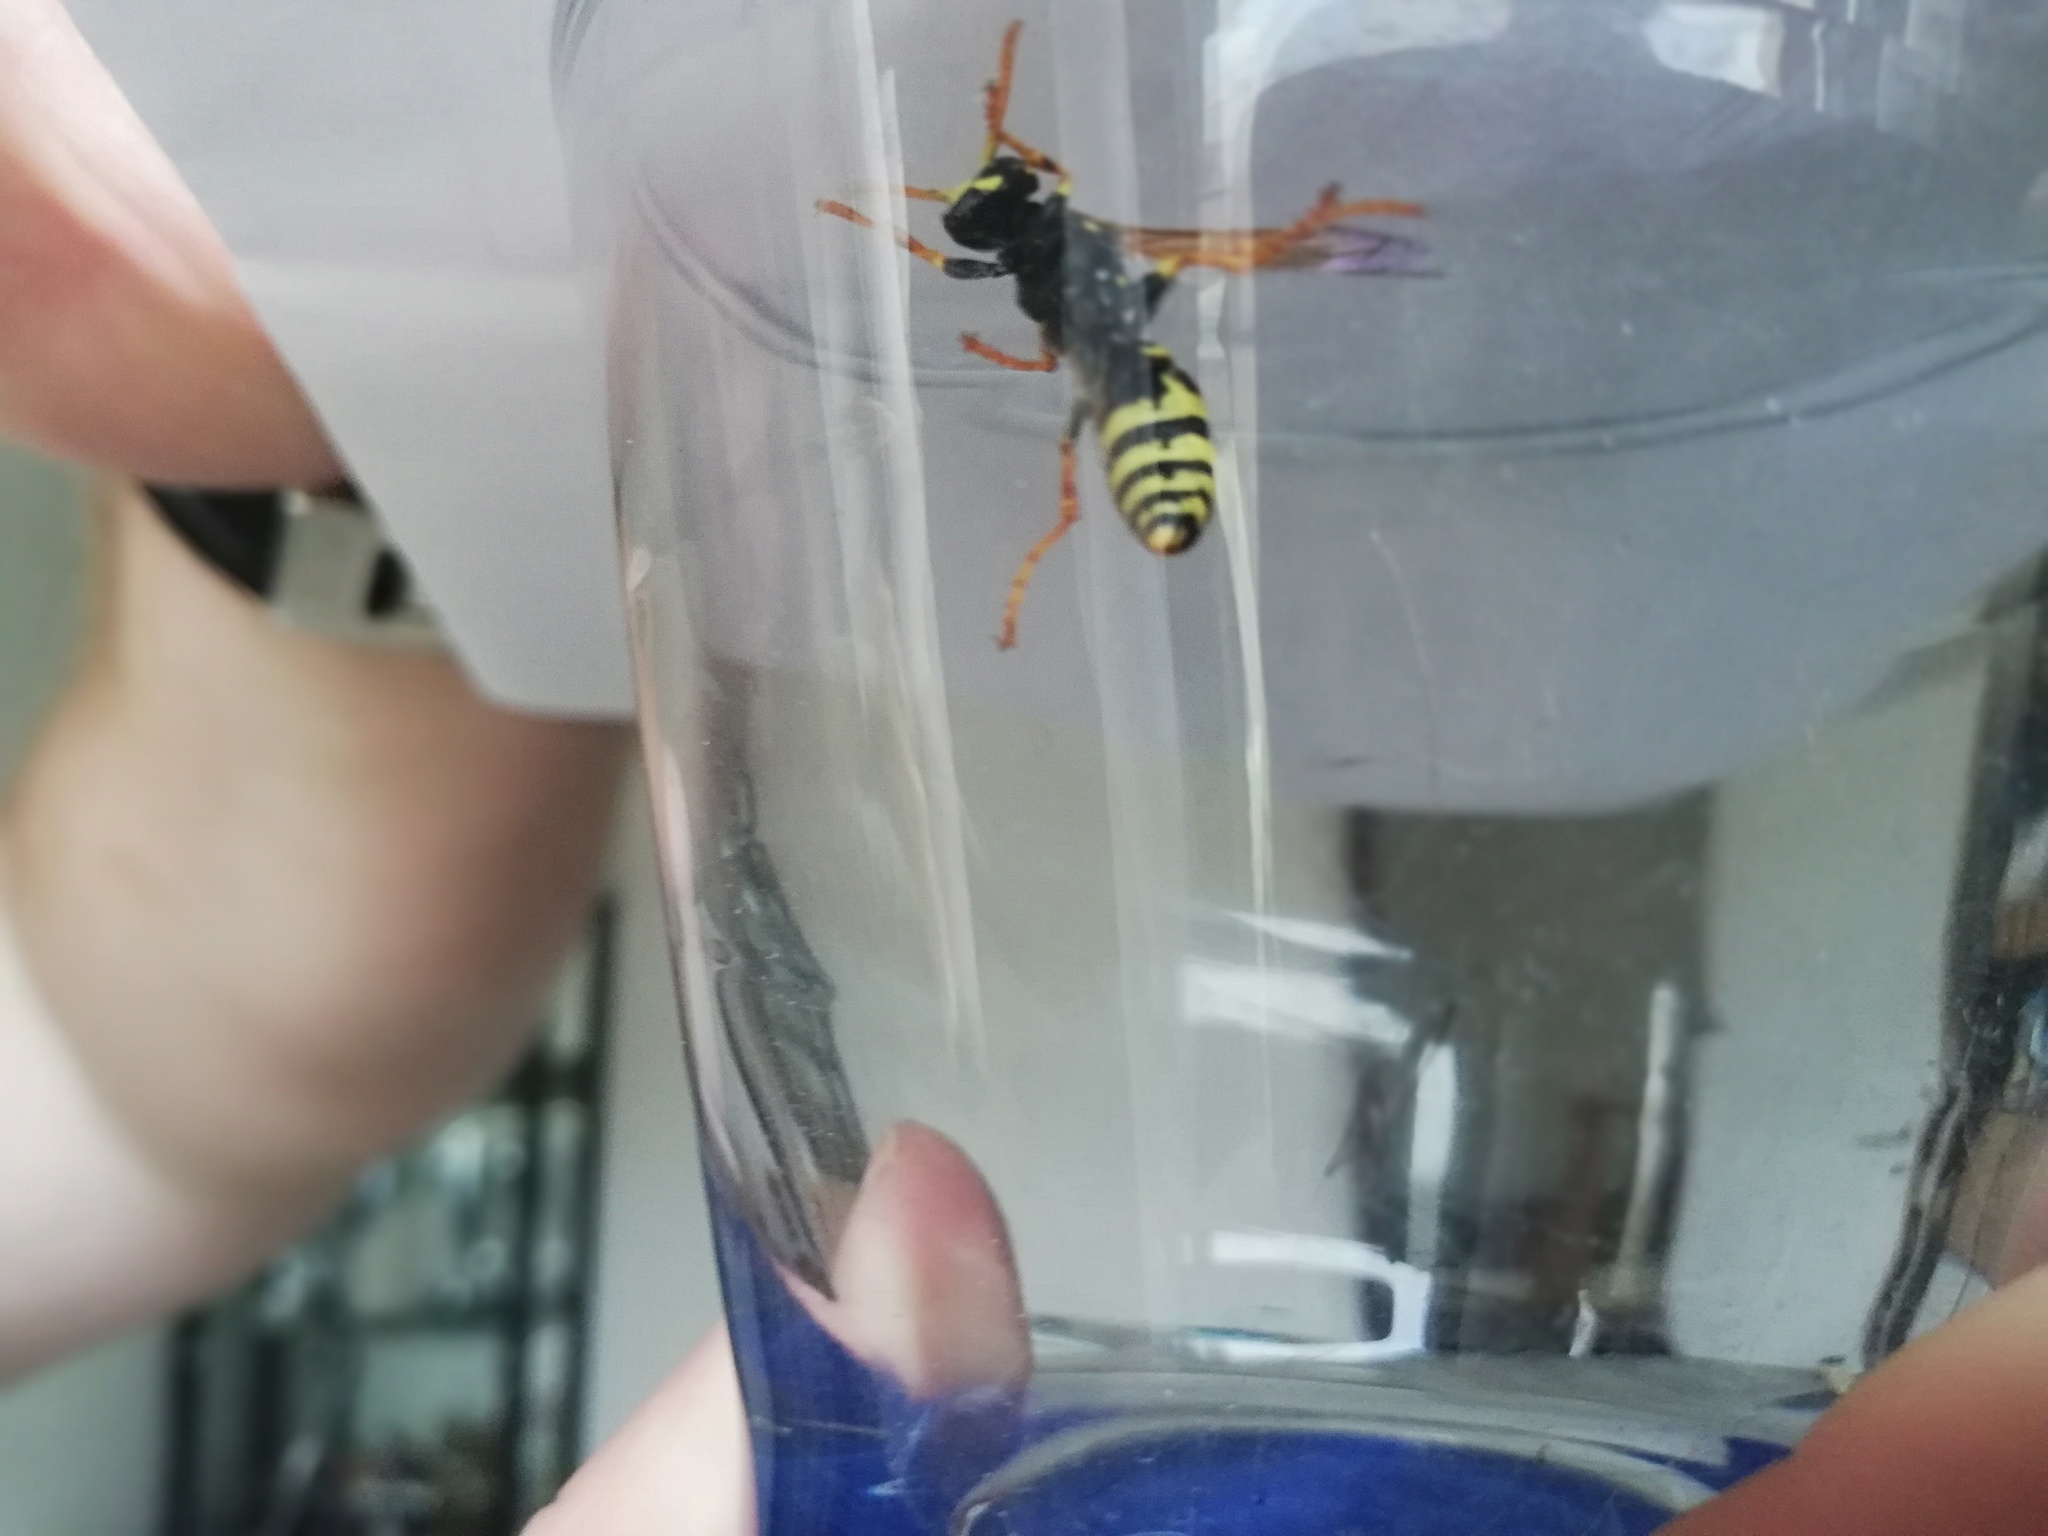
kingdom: Animalia
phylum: Arthropoda
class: Insecta
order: Hymenoptera
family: Eumenidae
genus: Polistes
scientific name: Polistes dominula
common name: Paper wasp
